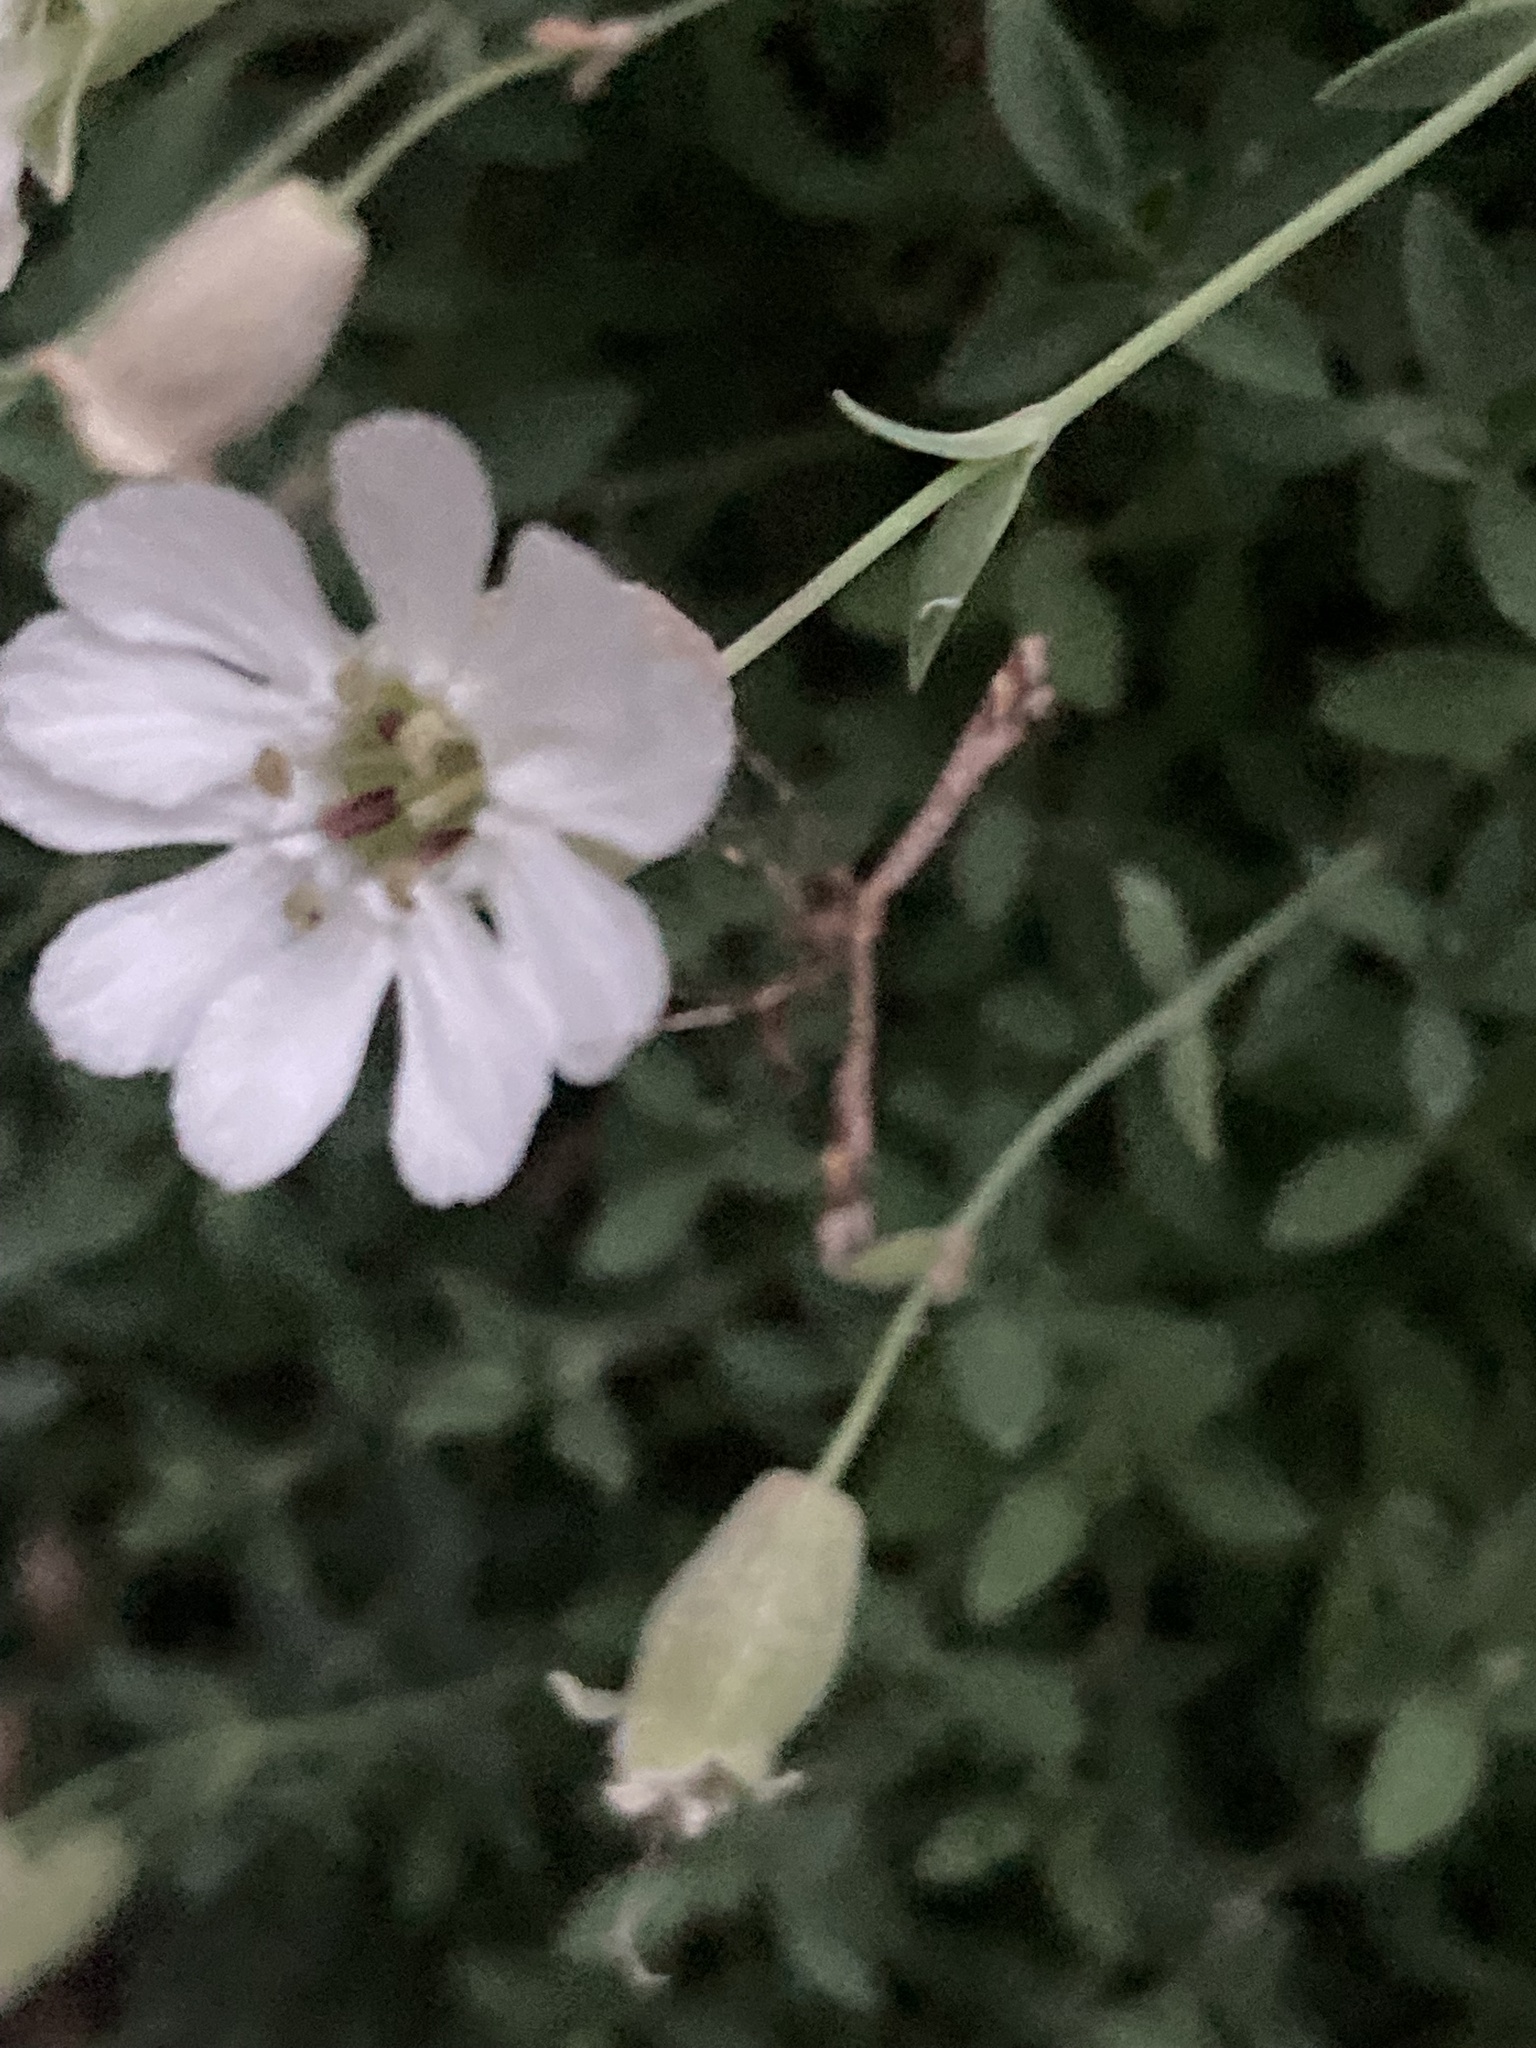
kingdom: Animalia
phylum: Arthropoda
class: Insecta
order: Lepidoptera
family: Pterophoridae
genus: Amblyptilia
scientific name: Amblyptilia acanthadactyla
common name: Beautiful plume
